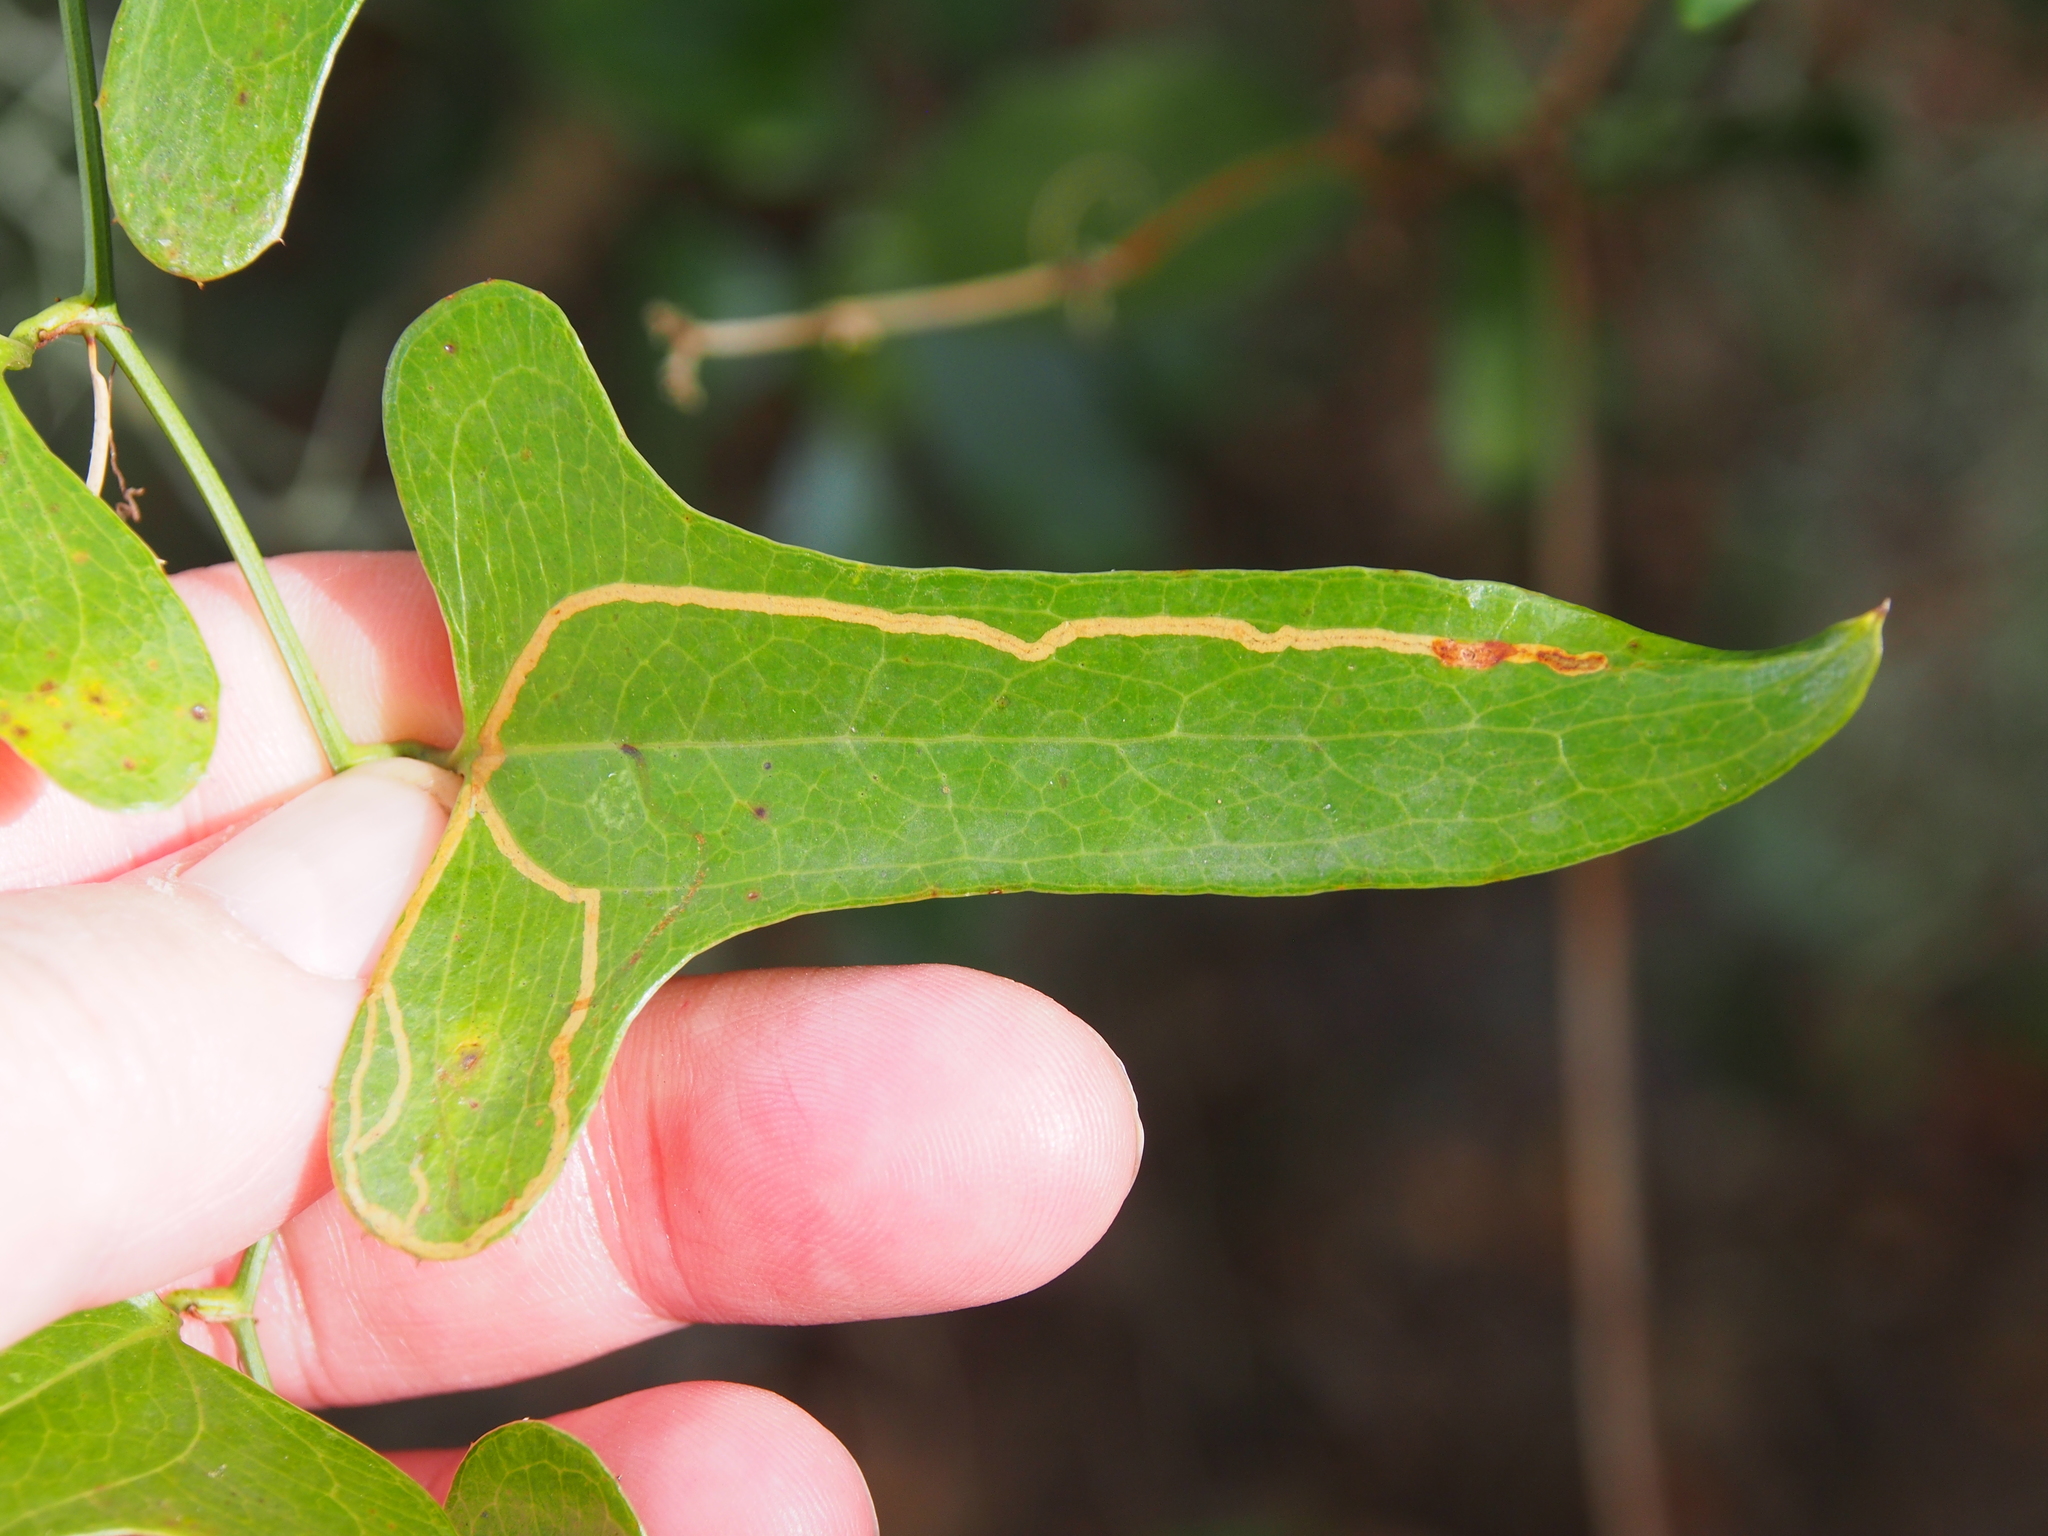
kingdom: Plantae
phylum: Tracheophyta
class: Liliopsida
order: Liliales
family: Smilacaceae
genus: Smilax
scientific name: Smilax bona-nox
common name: Catbrier
